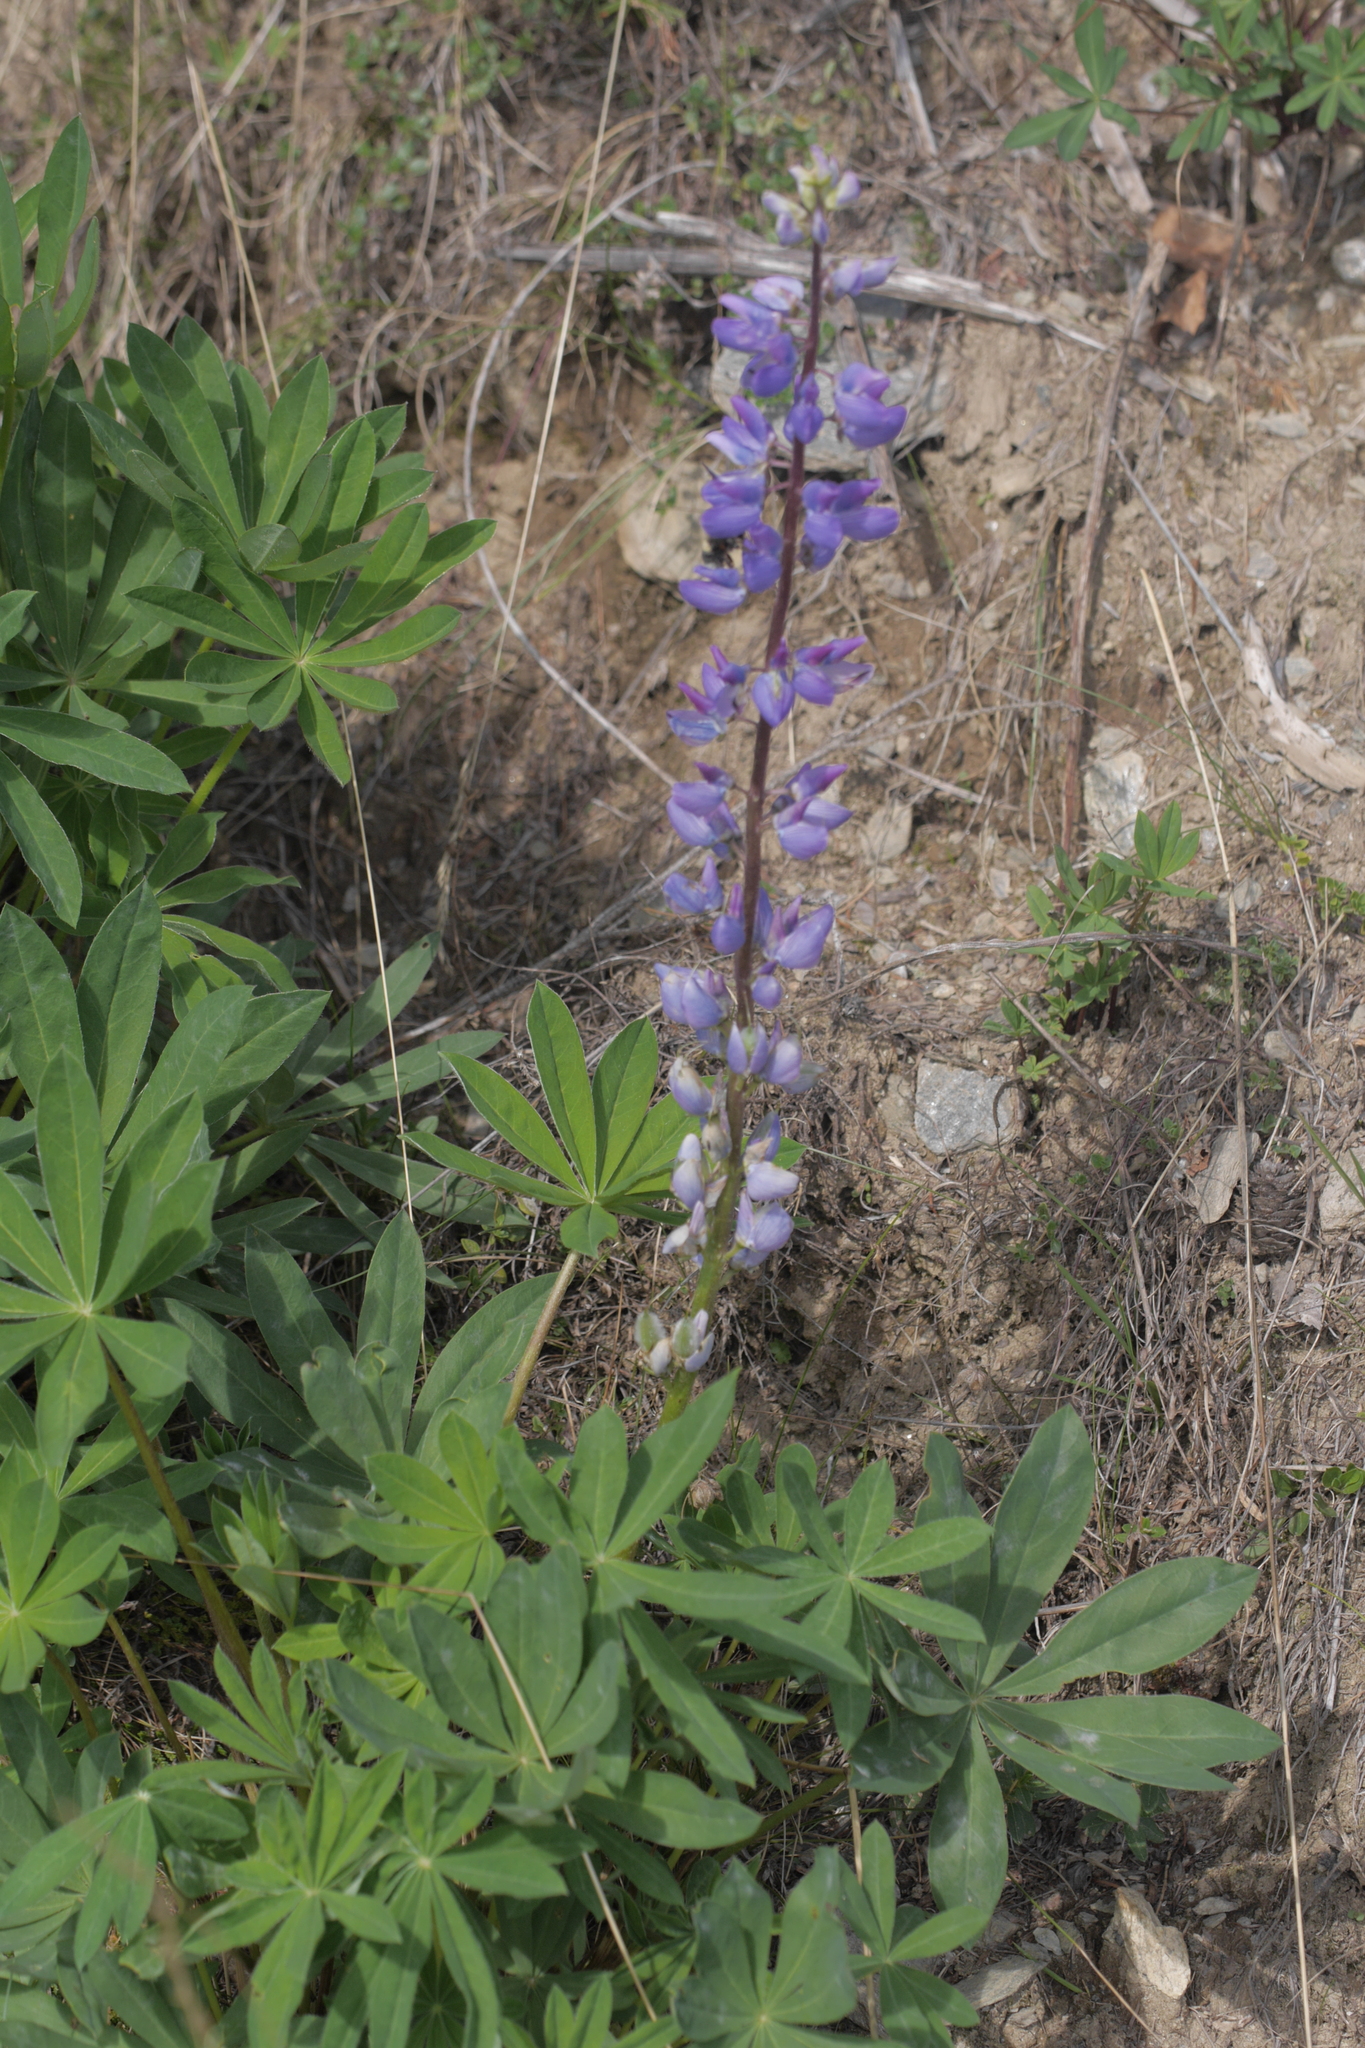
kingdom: Plantae
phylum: Tracheophyta
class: Magnoliopsida
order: Fabales
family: Fabaceae
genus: Lupinus
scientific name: Lupinus polyphyllus
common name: Garden lupin
